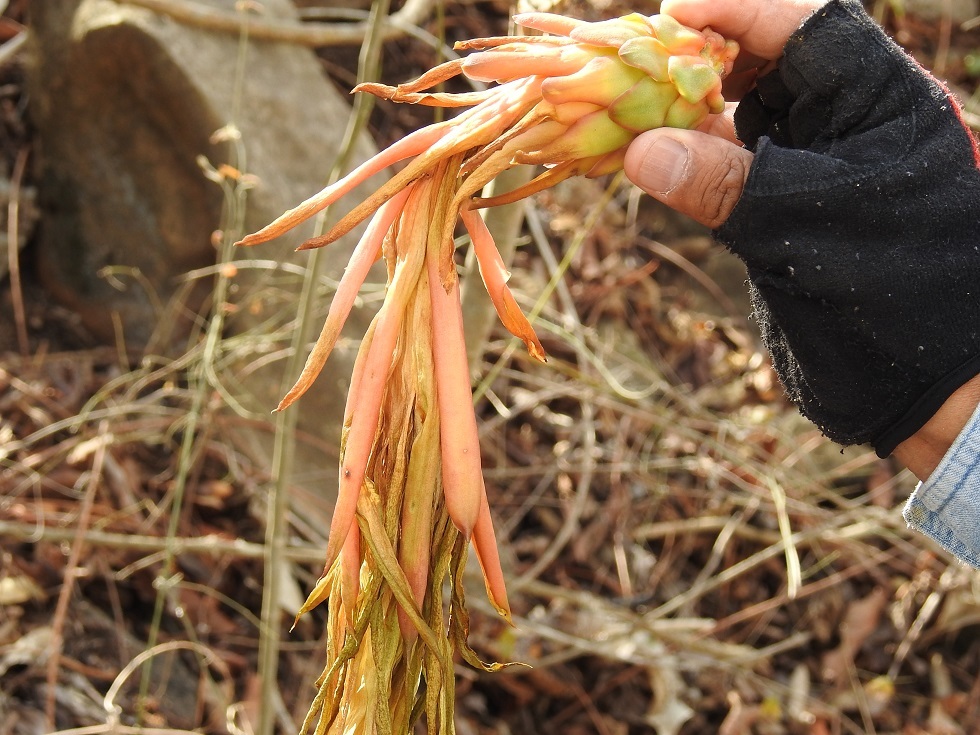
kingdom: Plantae
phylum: Tracheophyta
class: Magnoliopsida
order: Caryophyllales
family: Cactaceae
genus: Selenicereus
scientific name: Selenicereus ocamponis
